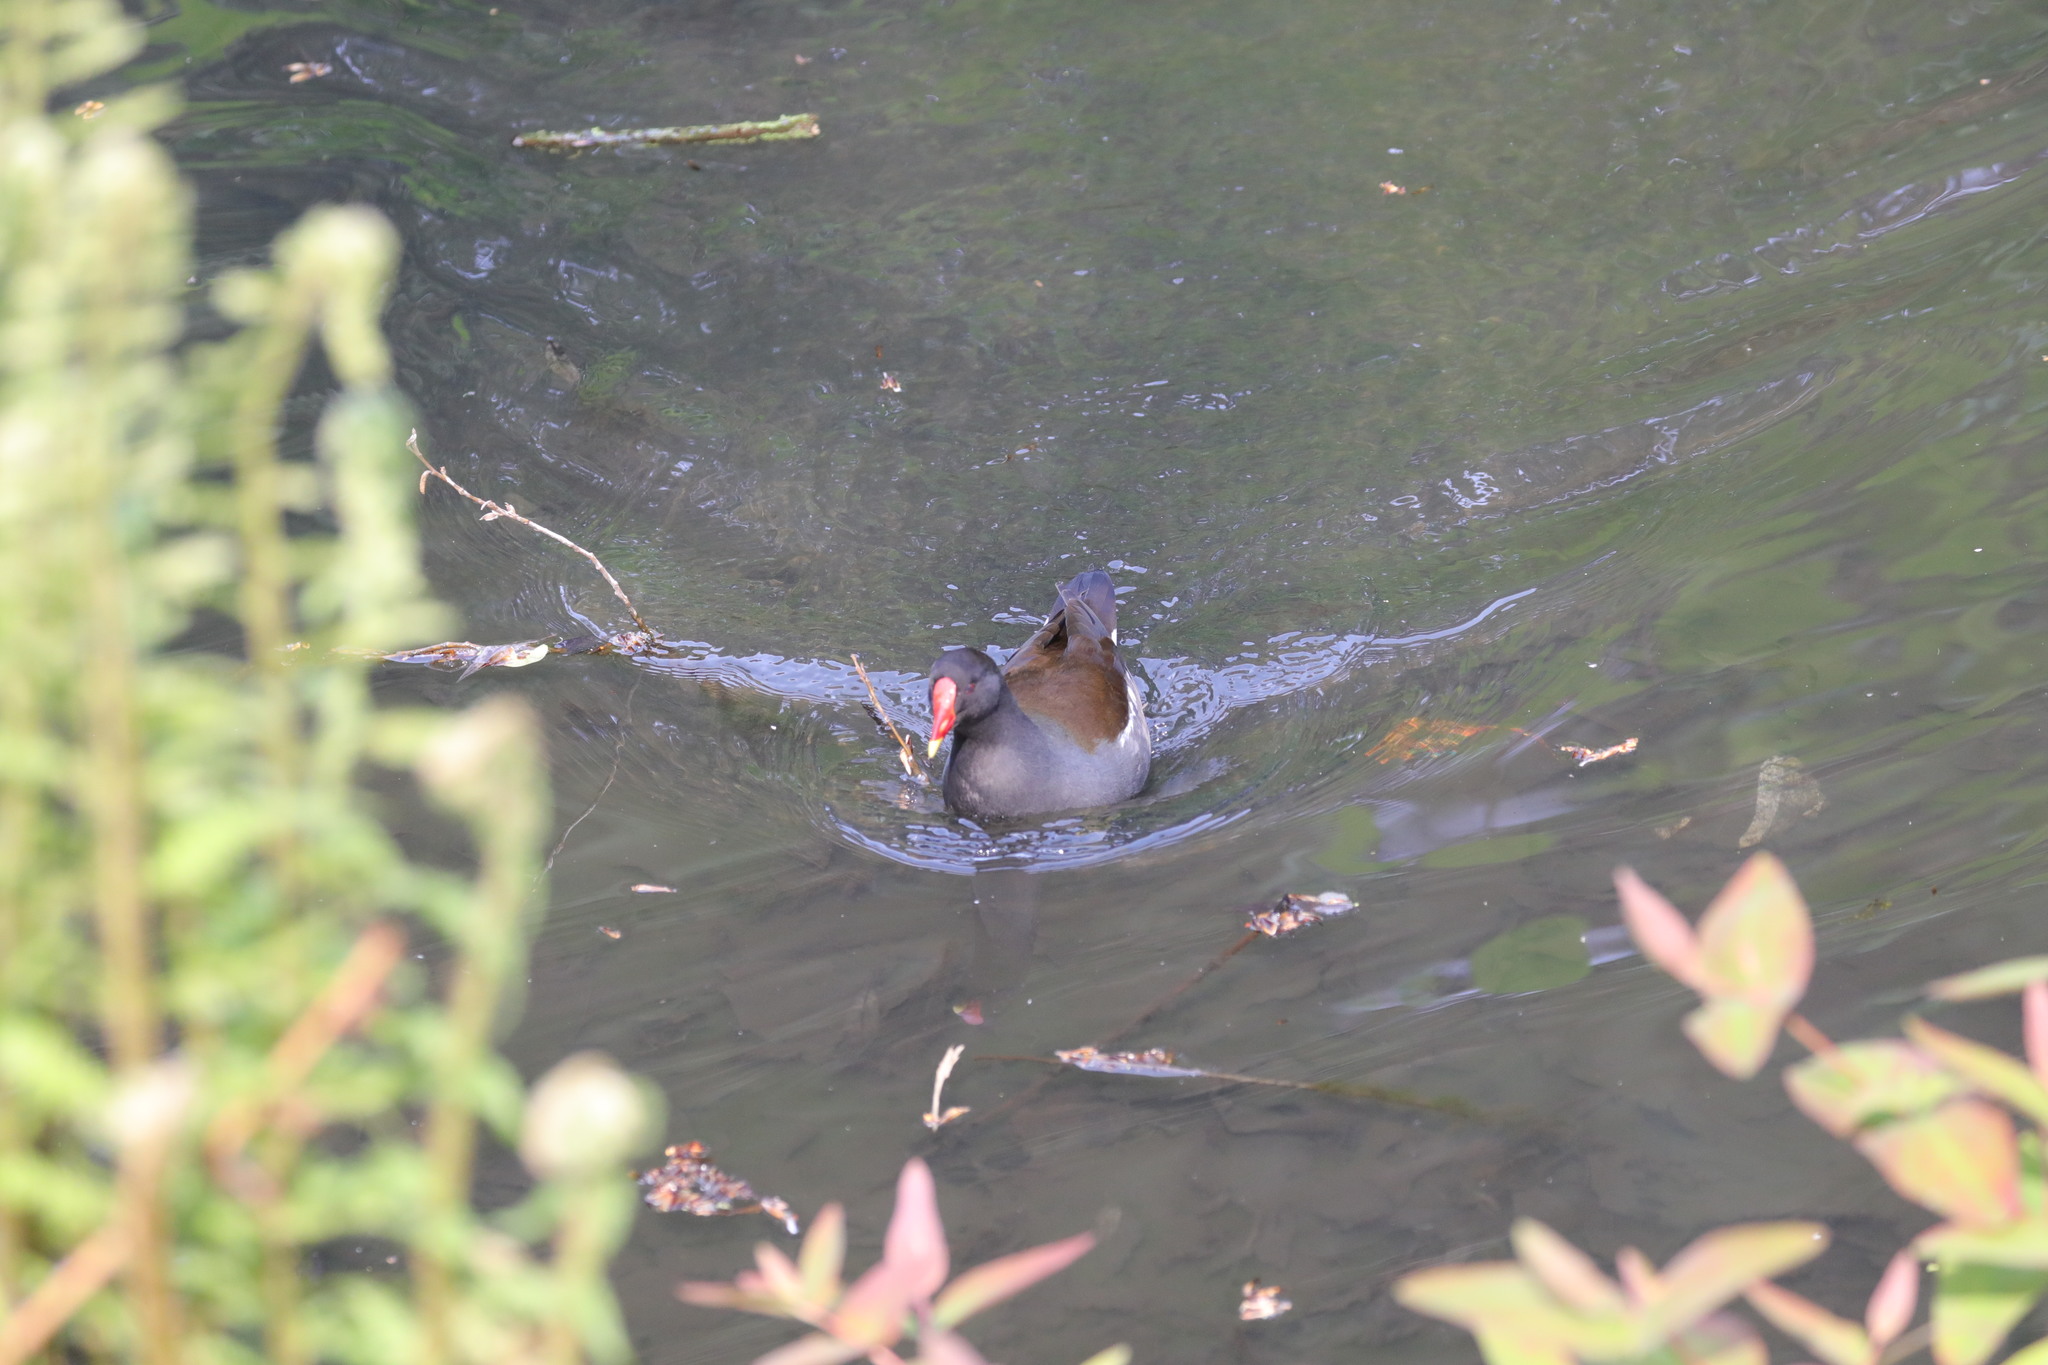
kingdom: Animalia
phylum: Chordata
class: Aves
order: Gruiformes
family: Rallidae
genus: Gallinula
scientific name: Gallinula chloropus
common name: Common moorhen
